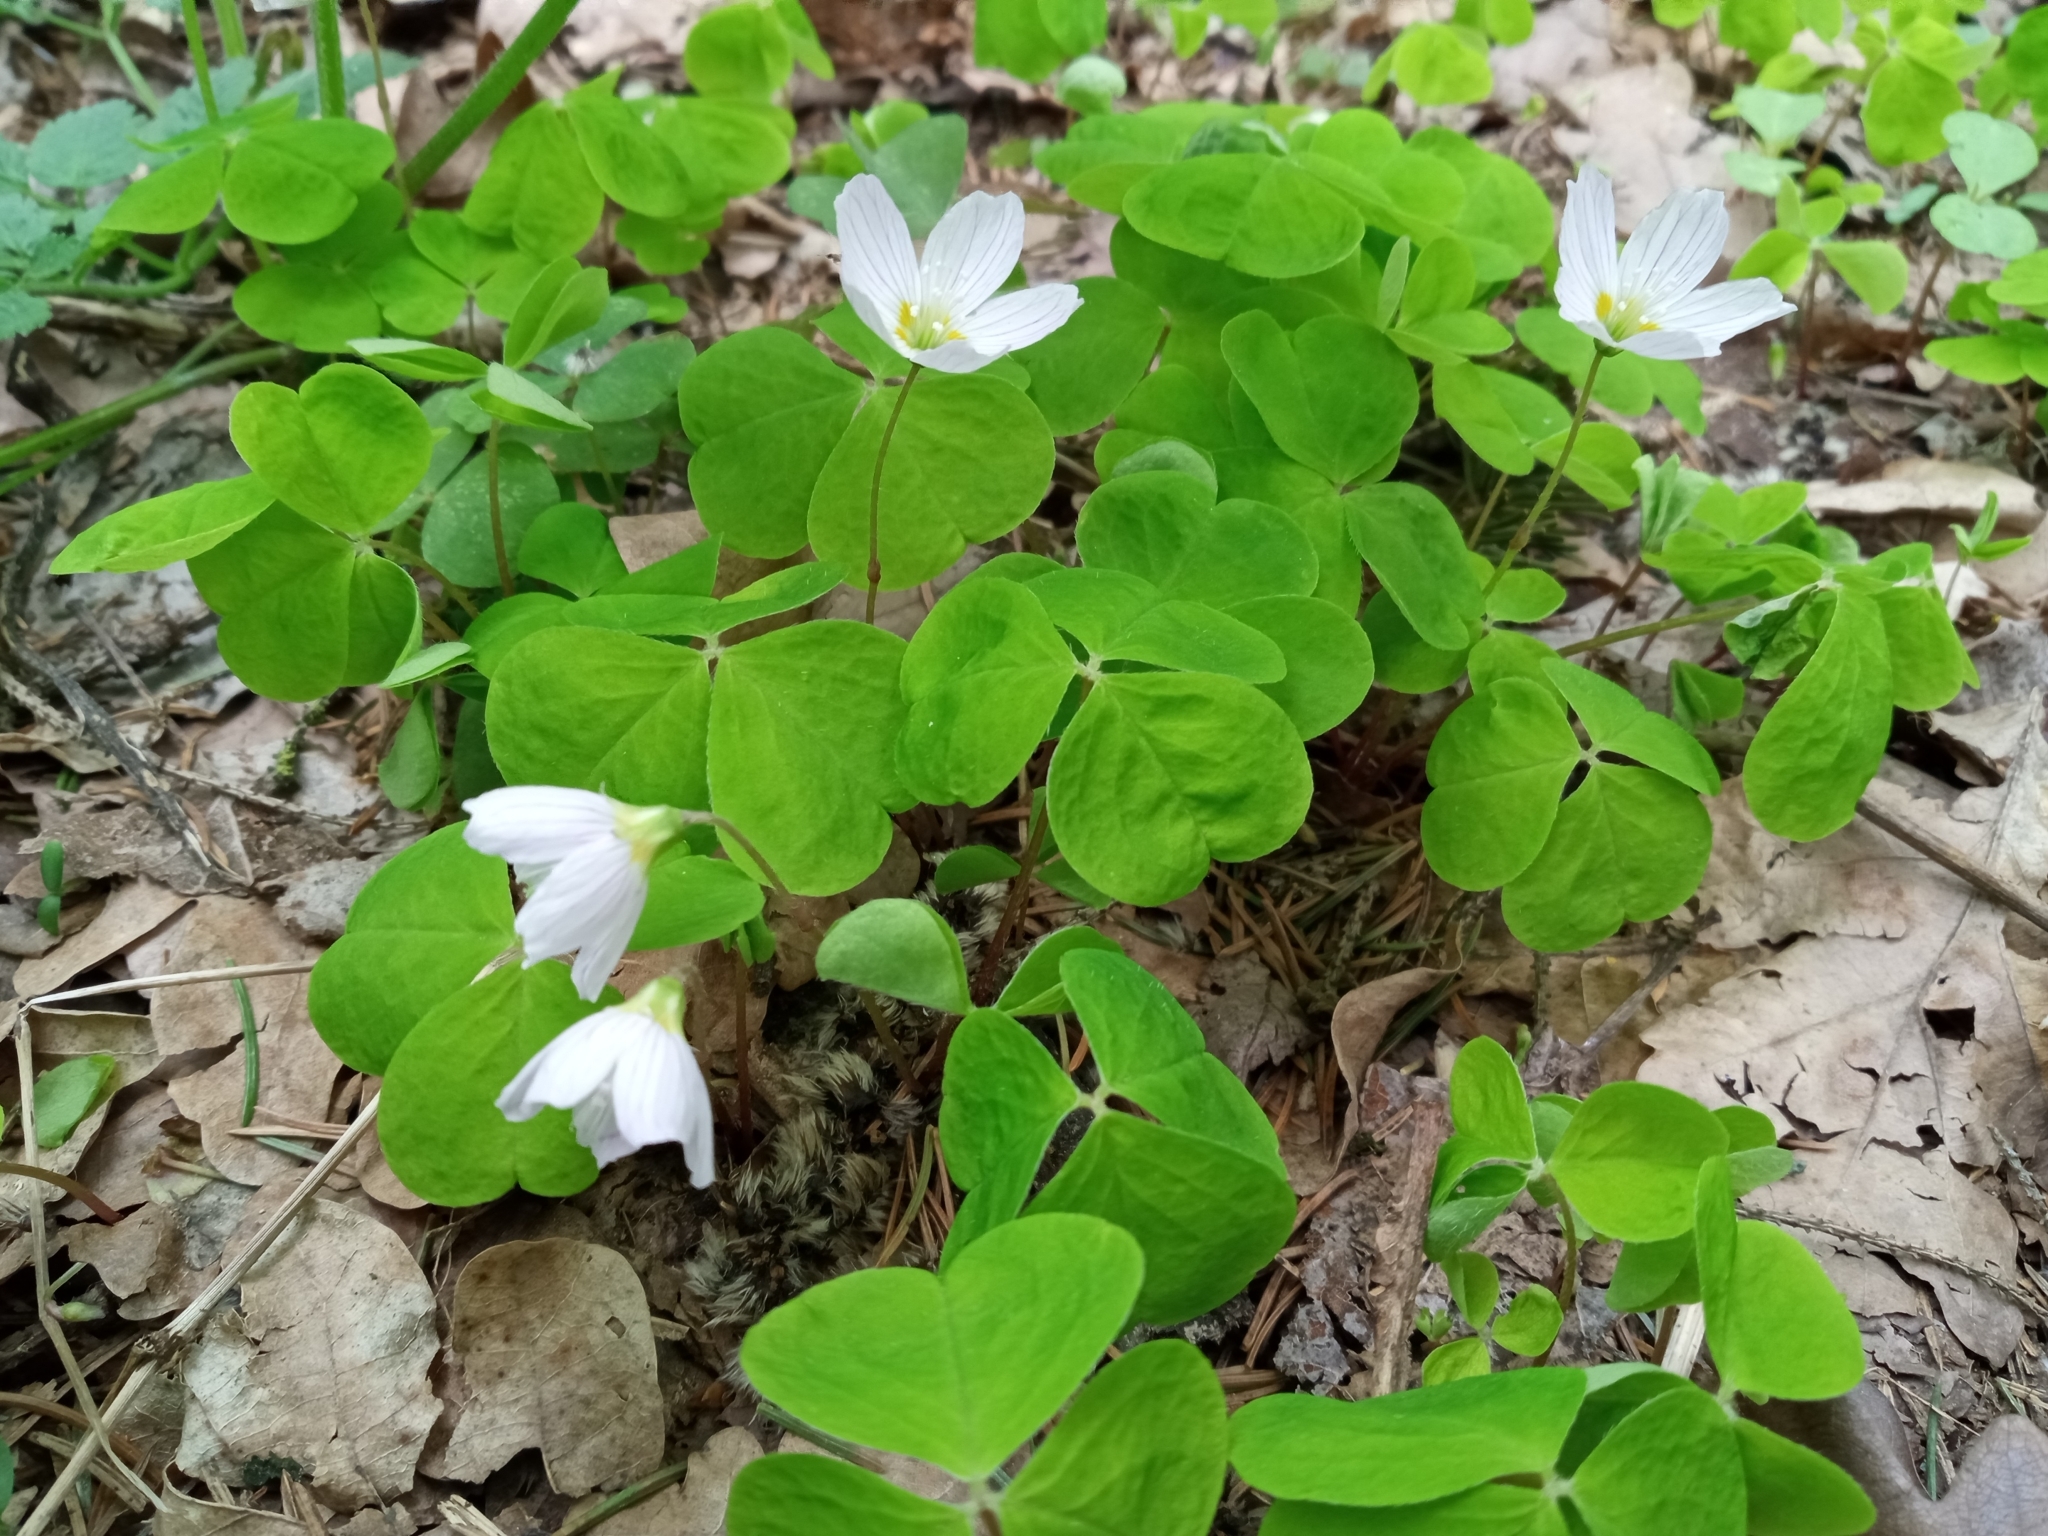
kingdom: Plantae
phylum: Tracheophyta
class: Magnoliopsida
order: Oxalidales
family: Oxalidaceae
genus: Oxalis
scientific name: Oxalis acetosella
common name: Wood-sorrel
